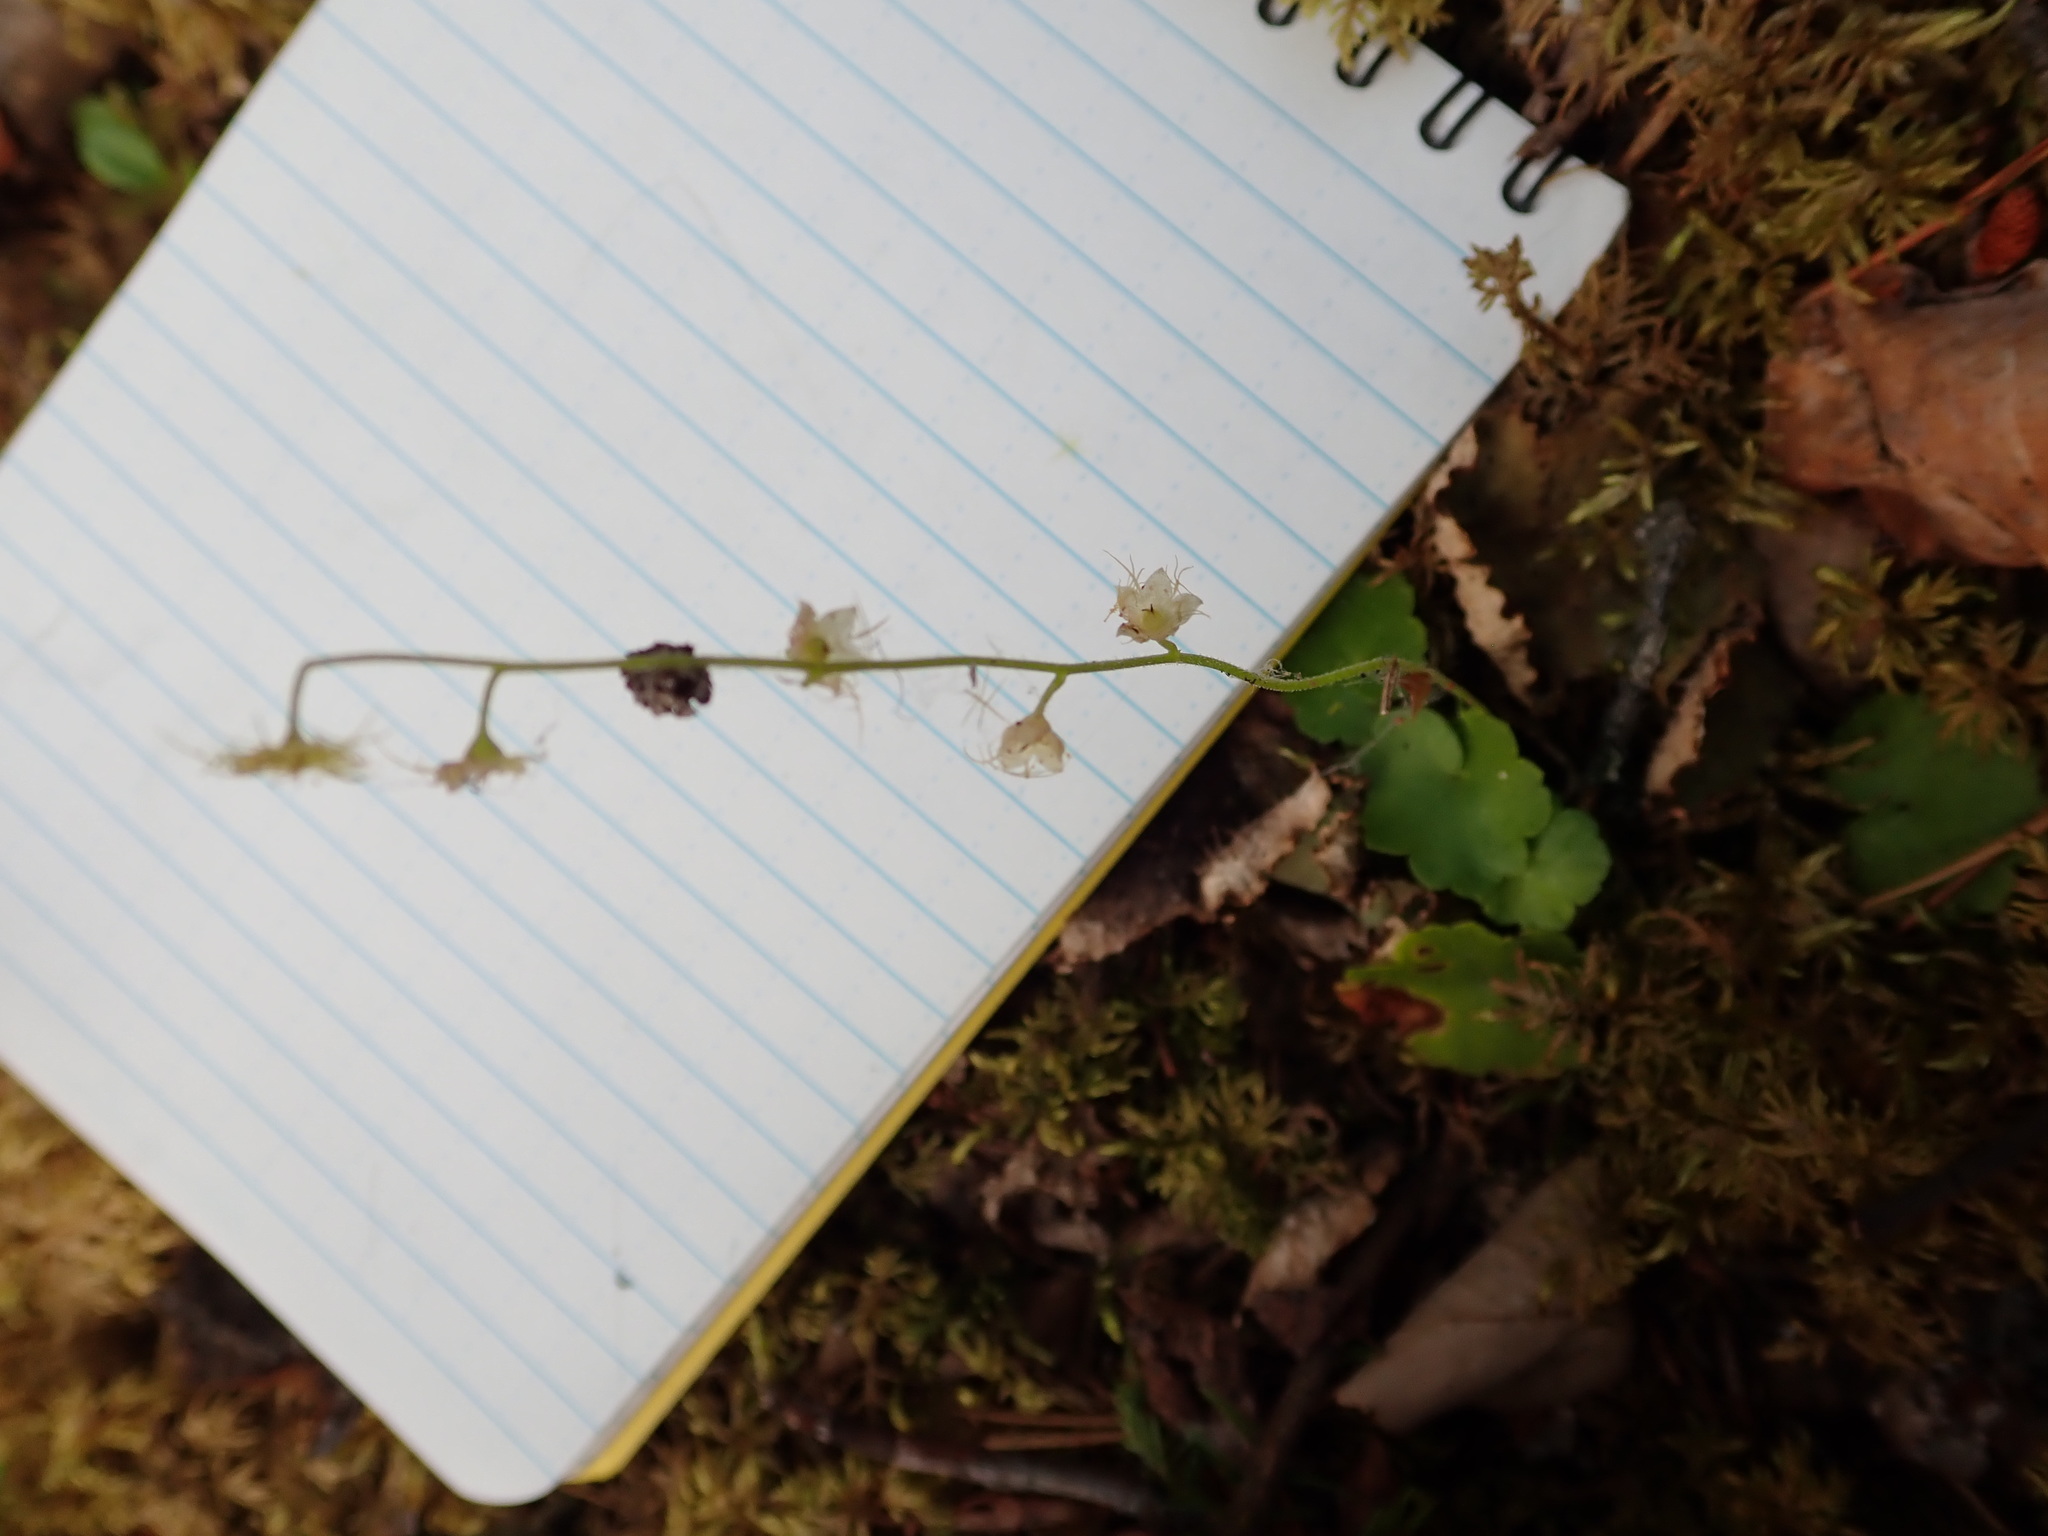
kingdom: Plantae
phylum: Tracheophyta
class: Magnoliopsida
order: Saxifragales
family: Saxifragaceae
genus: Mitella
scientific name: Mitella nuda
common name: Bare-stemmed bishop's-cap
